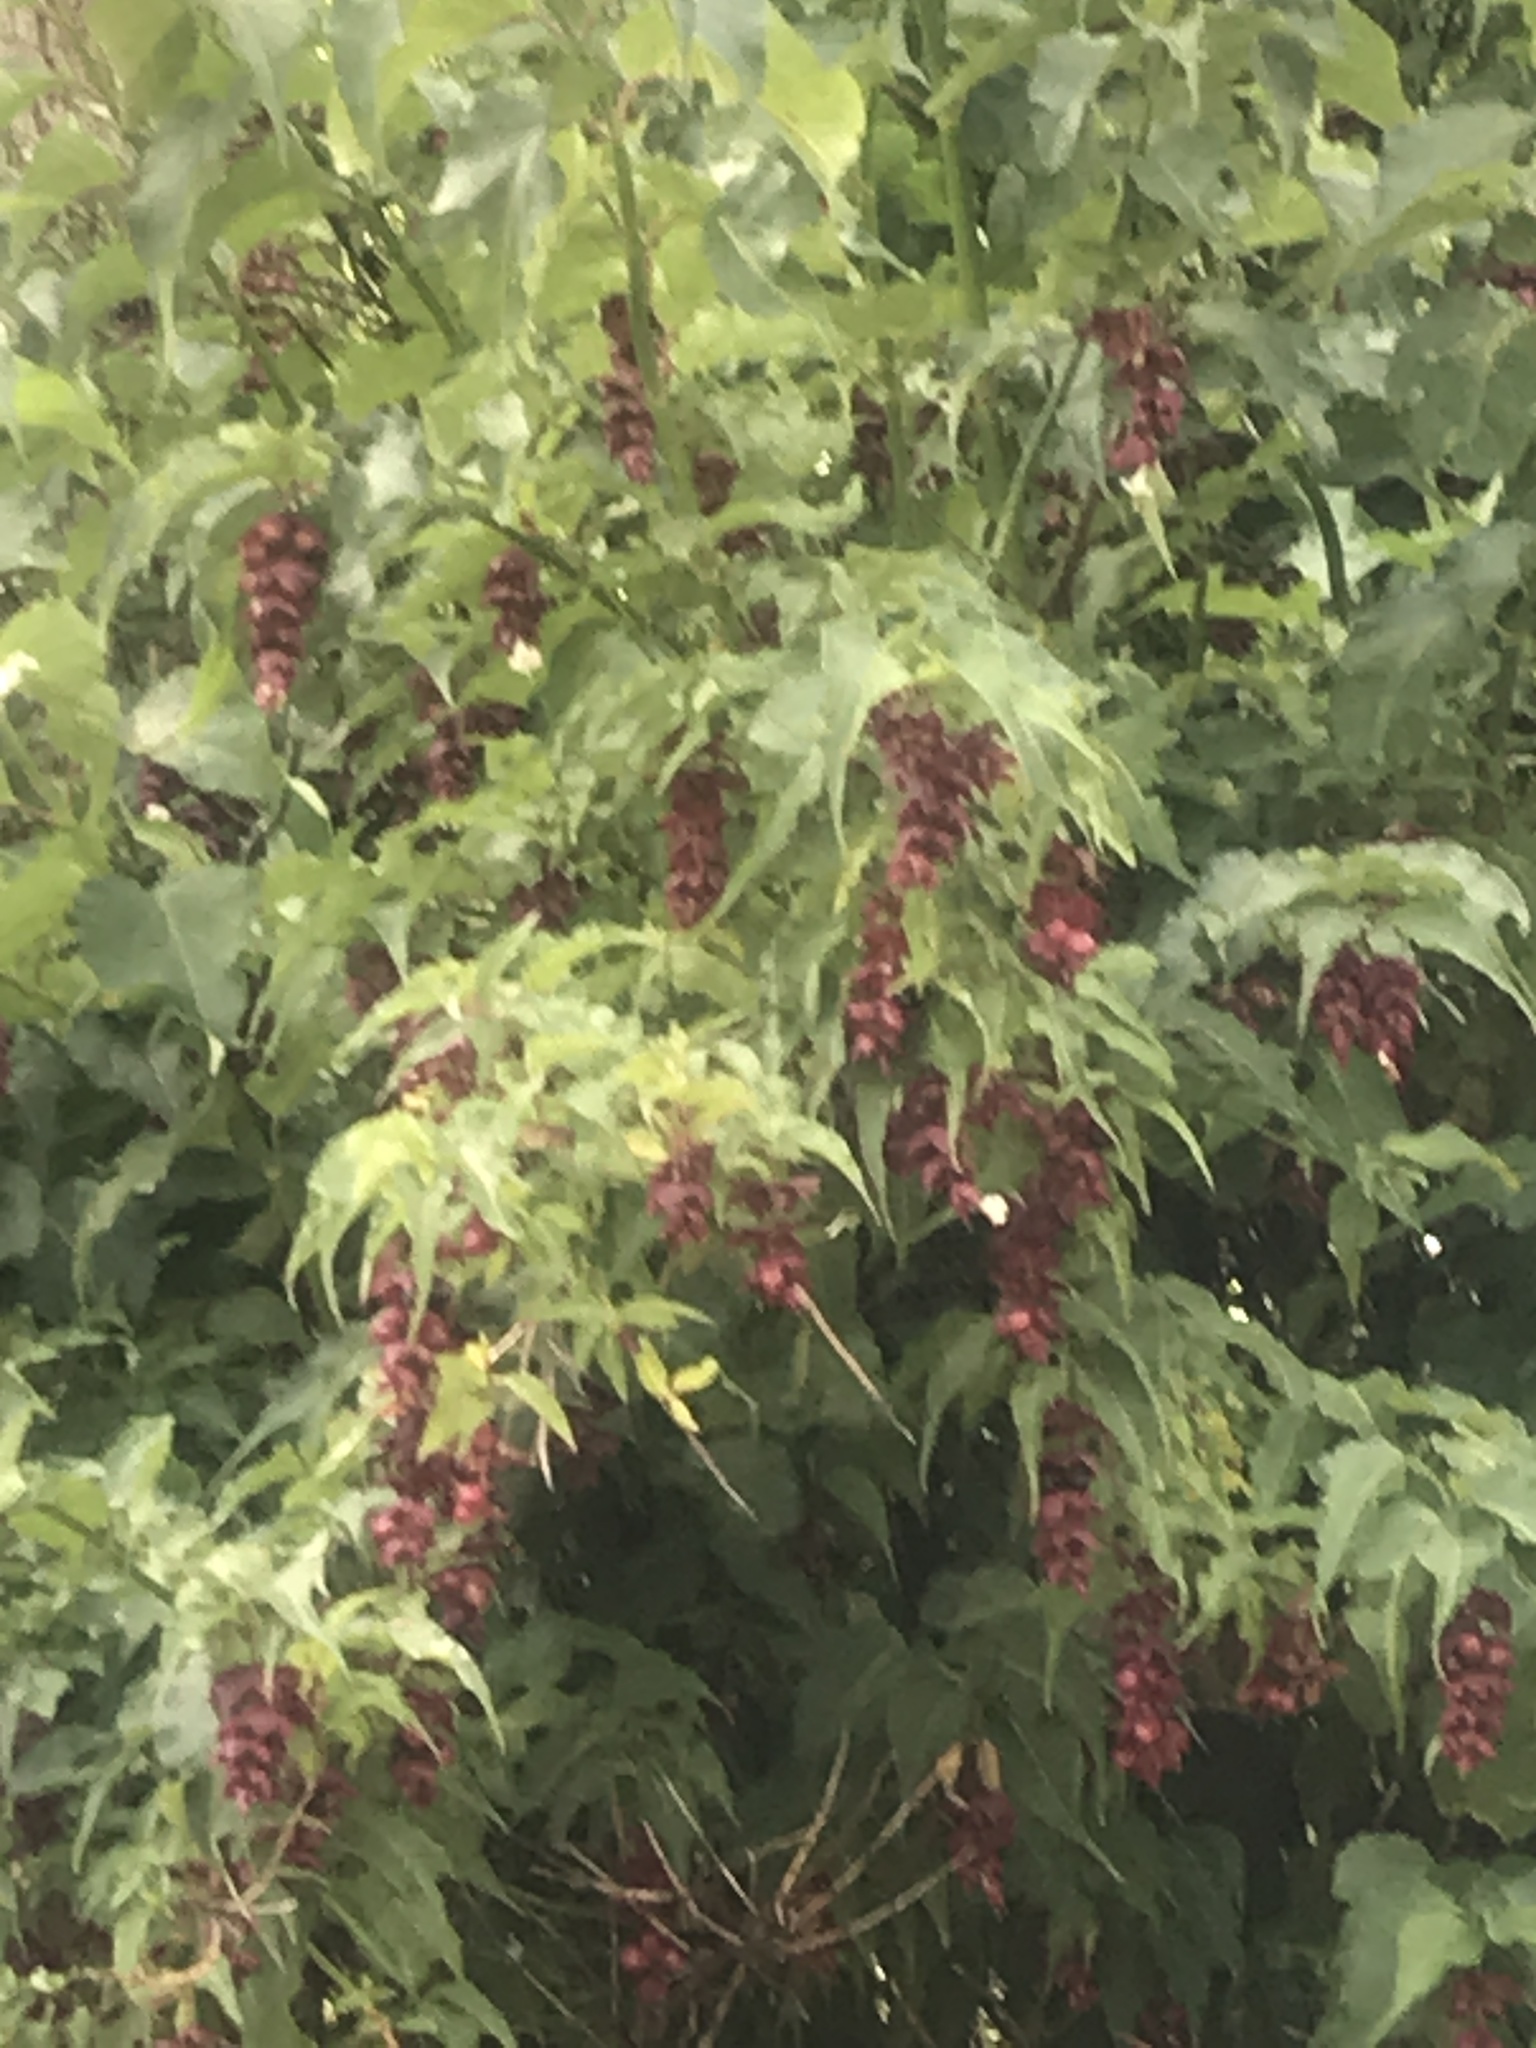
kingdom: Plantae
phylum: Tracheophyta
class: Magnoliopsida
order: Dipsacales
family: Caprifoliaceae
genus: Leycesteria
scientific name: Leycesteria formosa
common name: Himalayan honeysuckle
